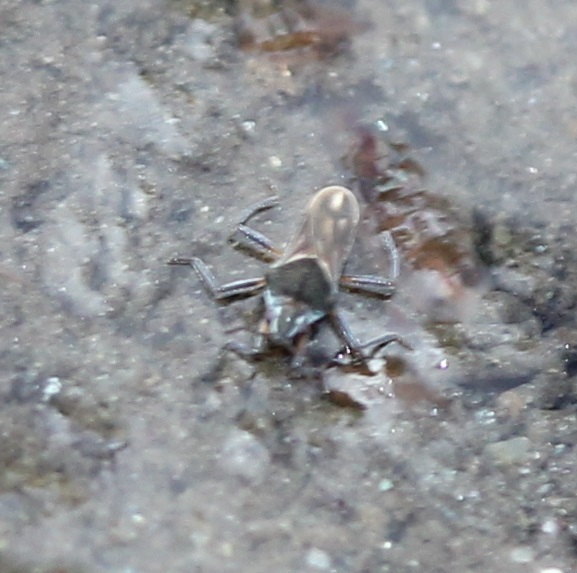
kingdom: Animalia
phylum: Arthropoda
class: Insecta
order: Hemiptera
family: Veliidae
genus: Microvelia
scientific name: Microvelia pulchella
